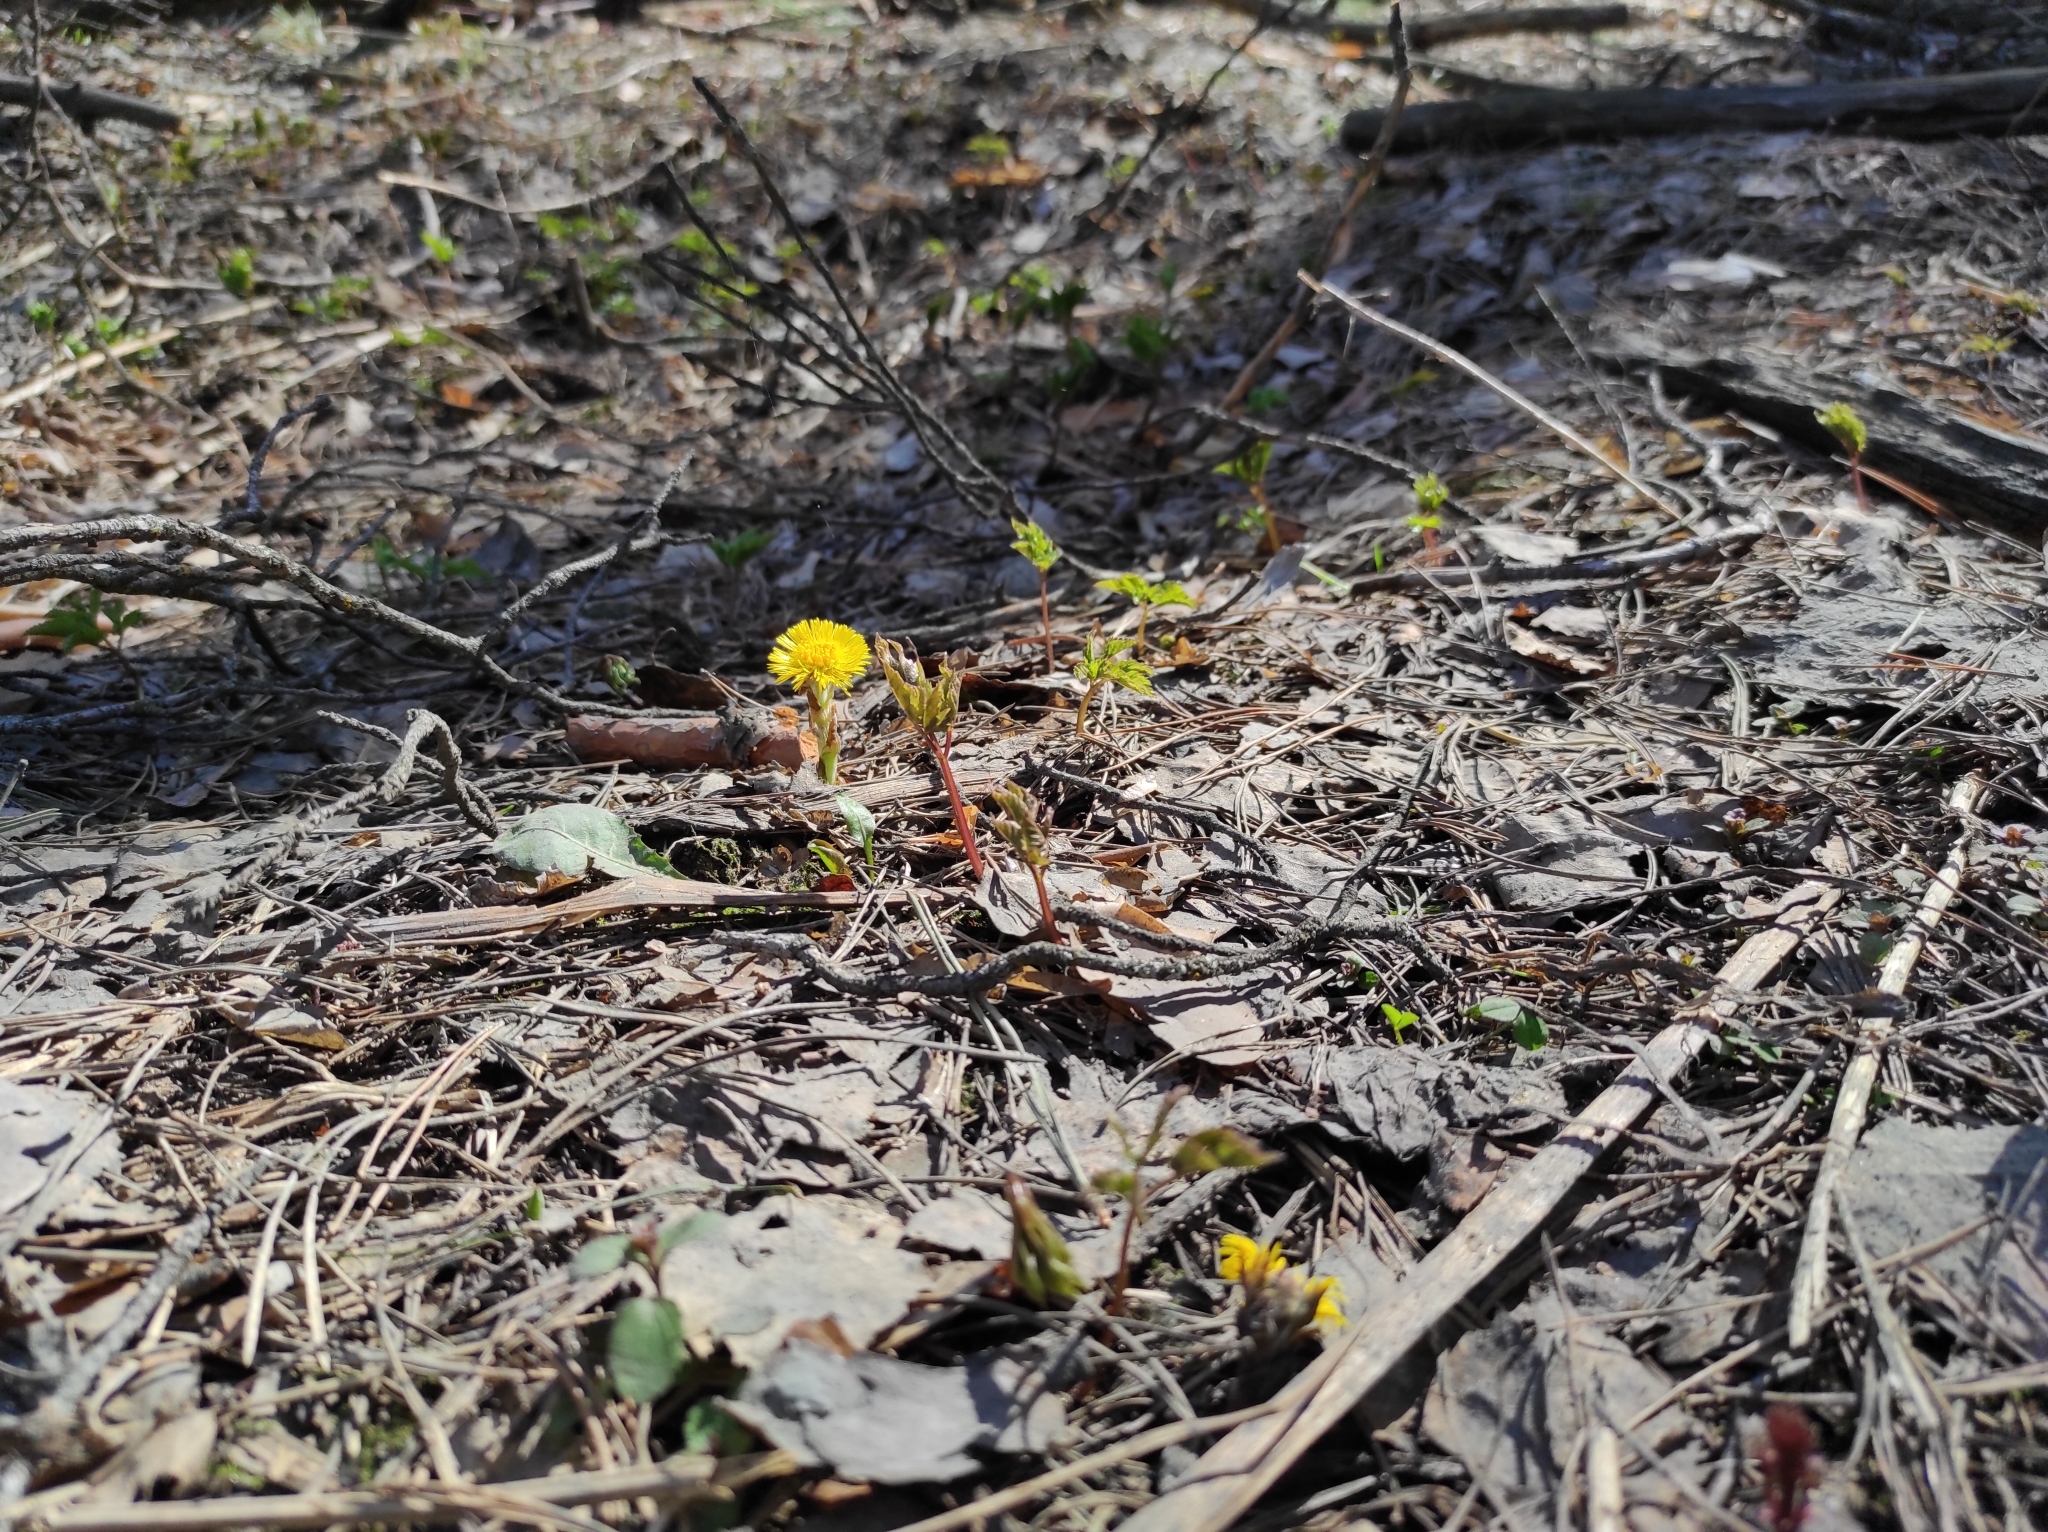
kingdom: Plantae
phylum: Tracheophyta
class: Magnoliopsida
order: Asterales
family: Asteraceae
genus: Tussilago
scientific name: Tussilago farfara
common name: Coltsfoot
